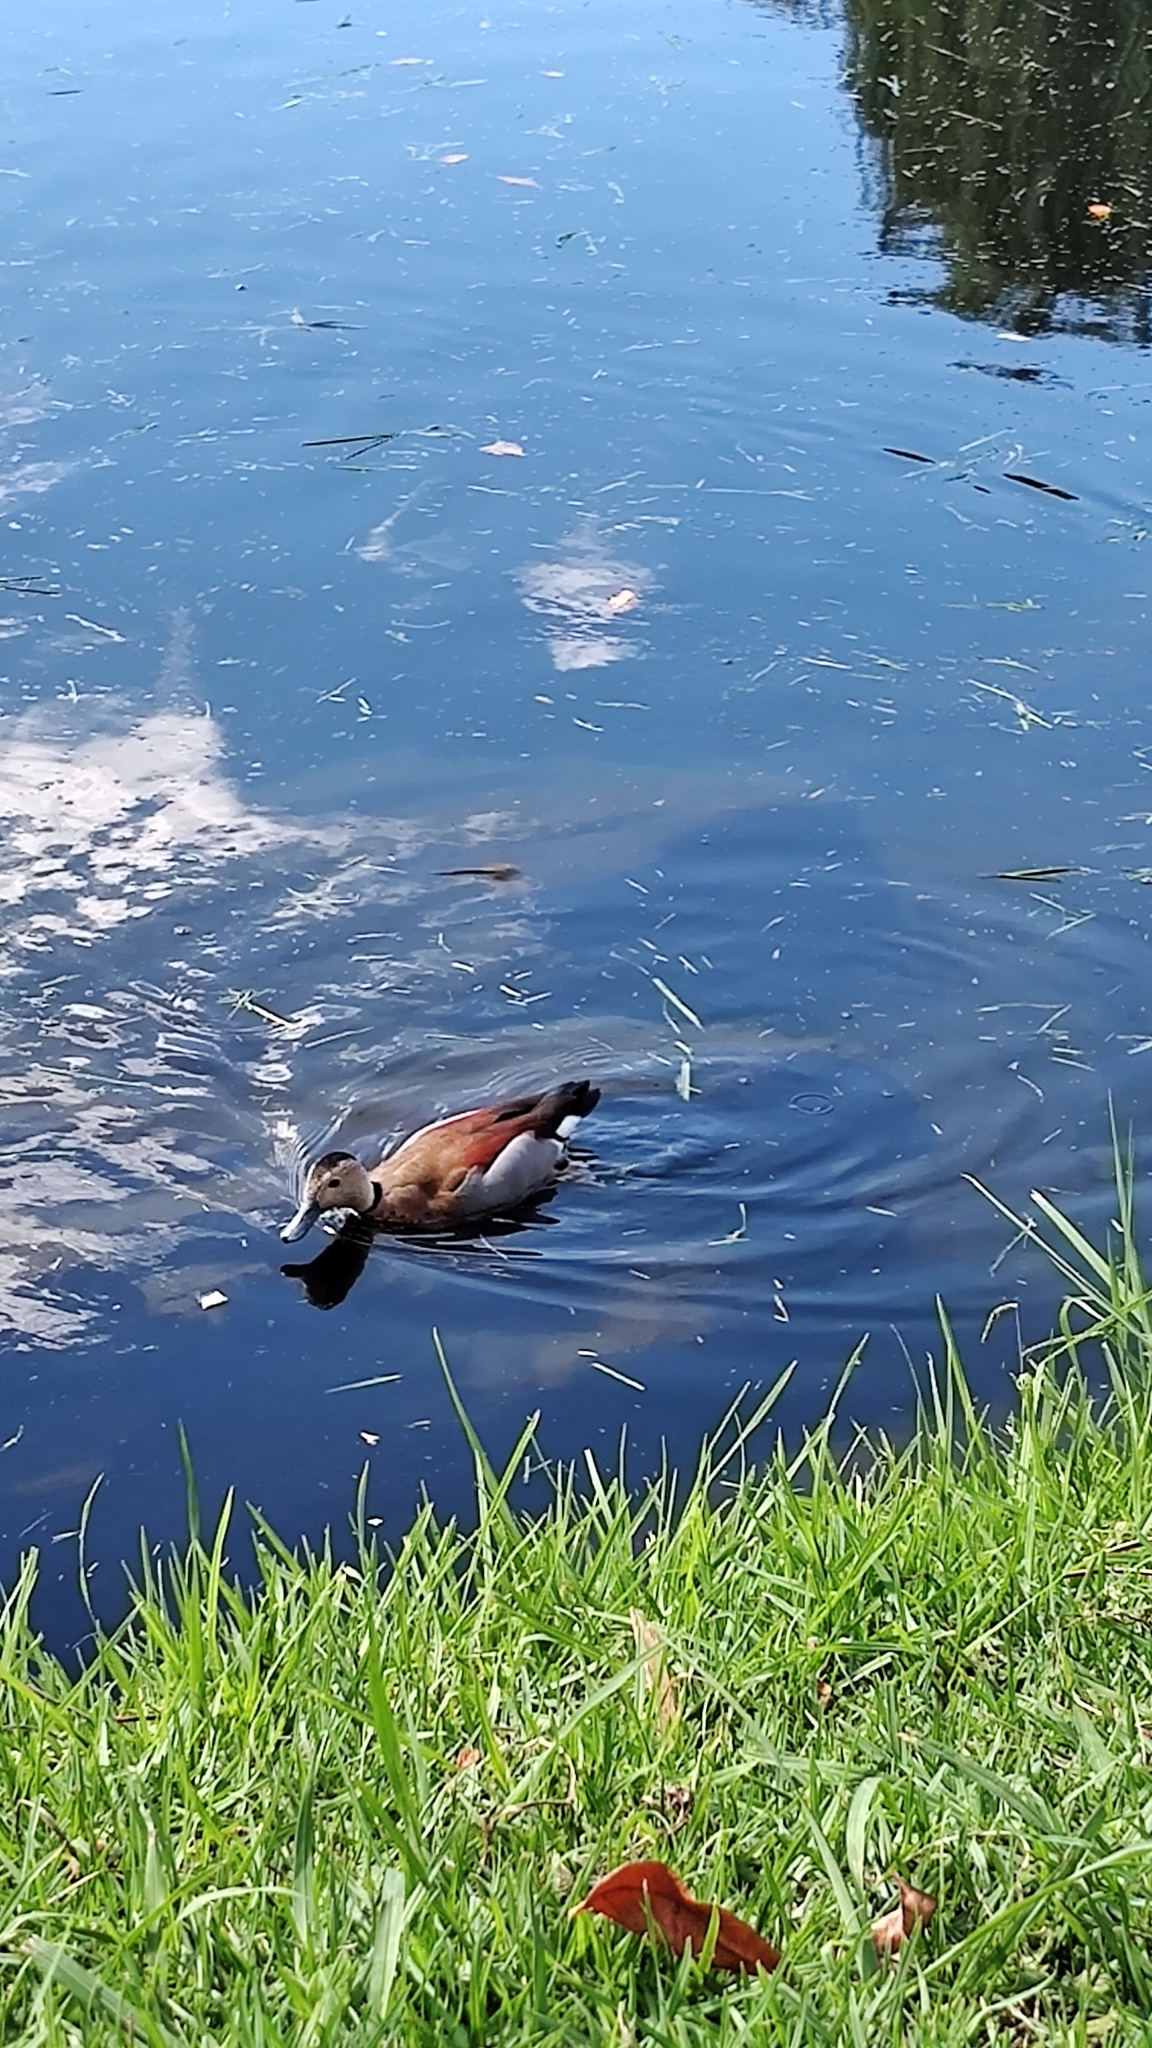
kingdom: Animalia
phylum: Chordata
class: Aves
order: Anseriformes
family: Anatidae
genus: Callonetta
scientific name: Callonetta leucophrys
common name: Ringed teal
